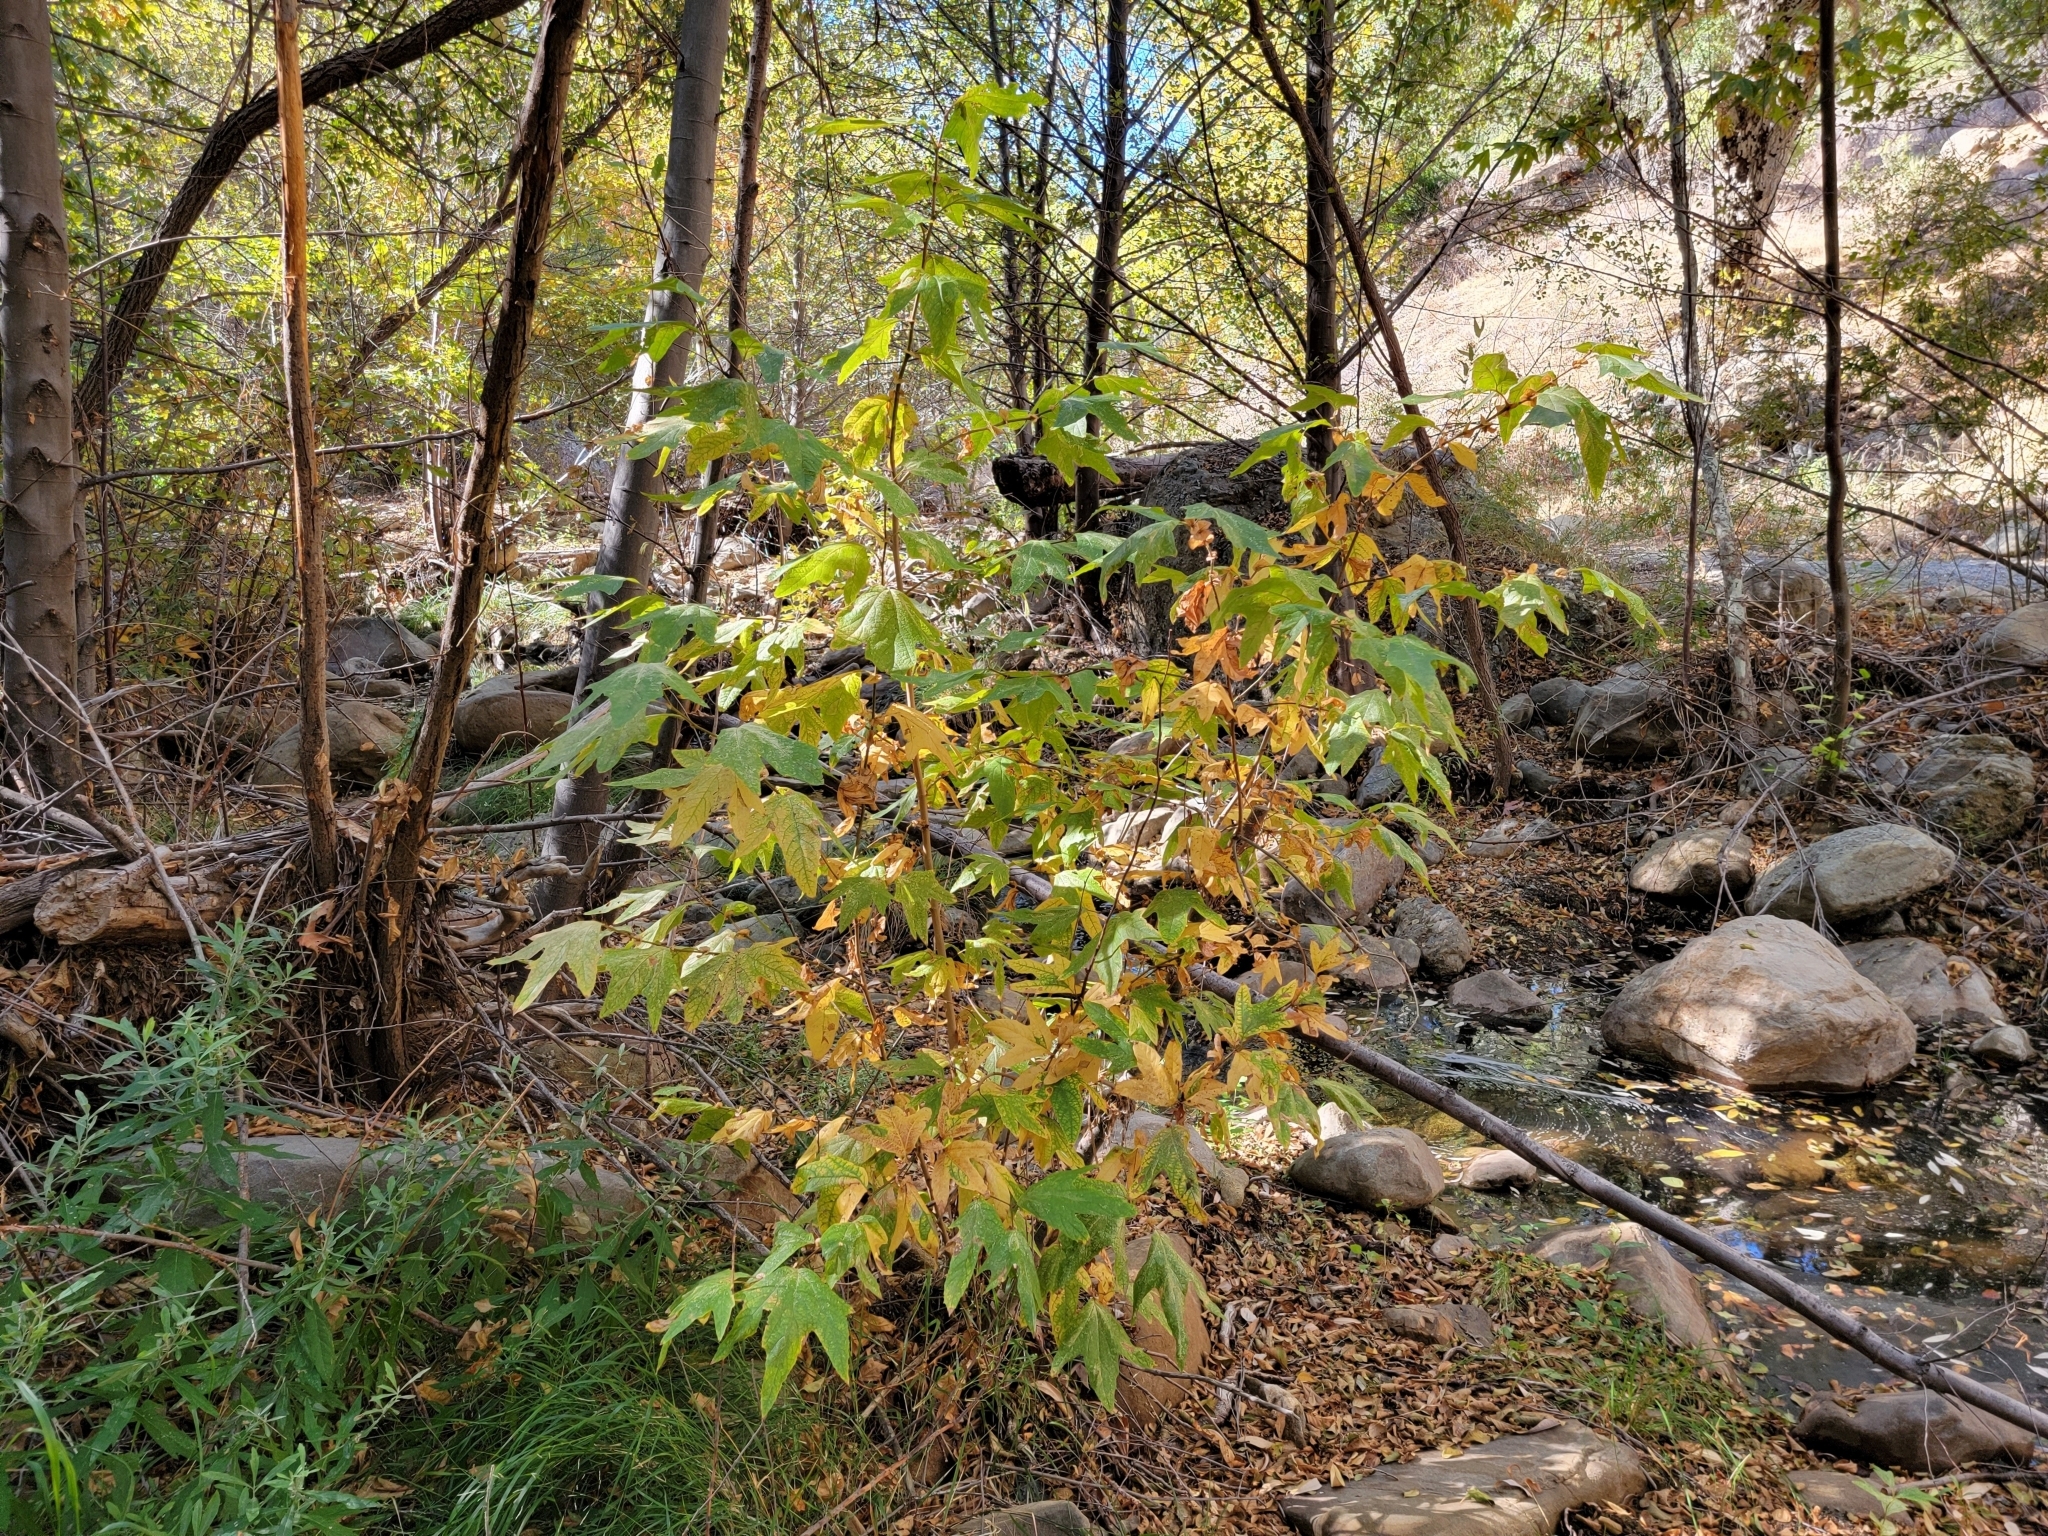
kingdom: Plantae
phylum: Tracheophyta
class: Magnoliopsida
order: Proteales
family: Platanaceae
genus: Platanus
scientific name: Platanus racemosa
